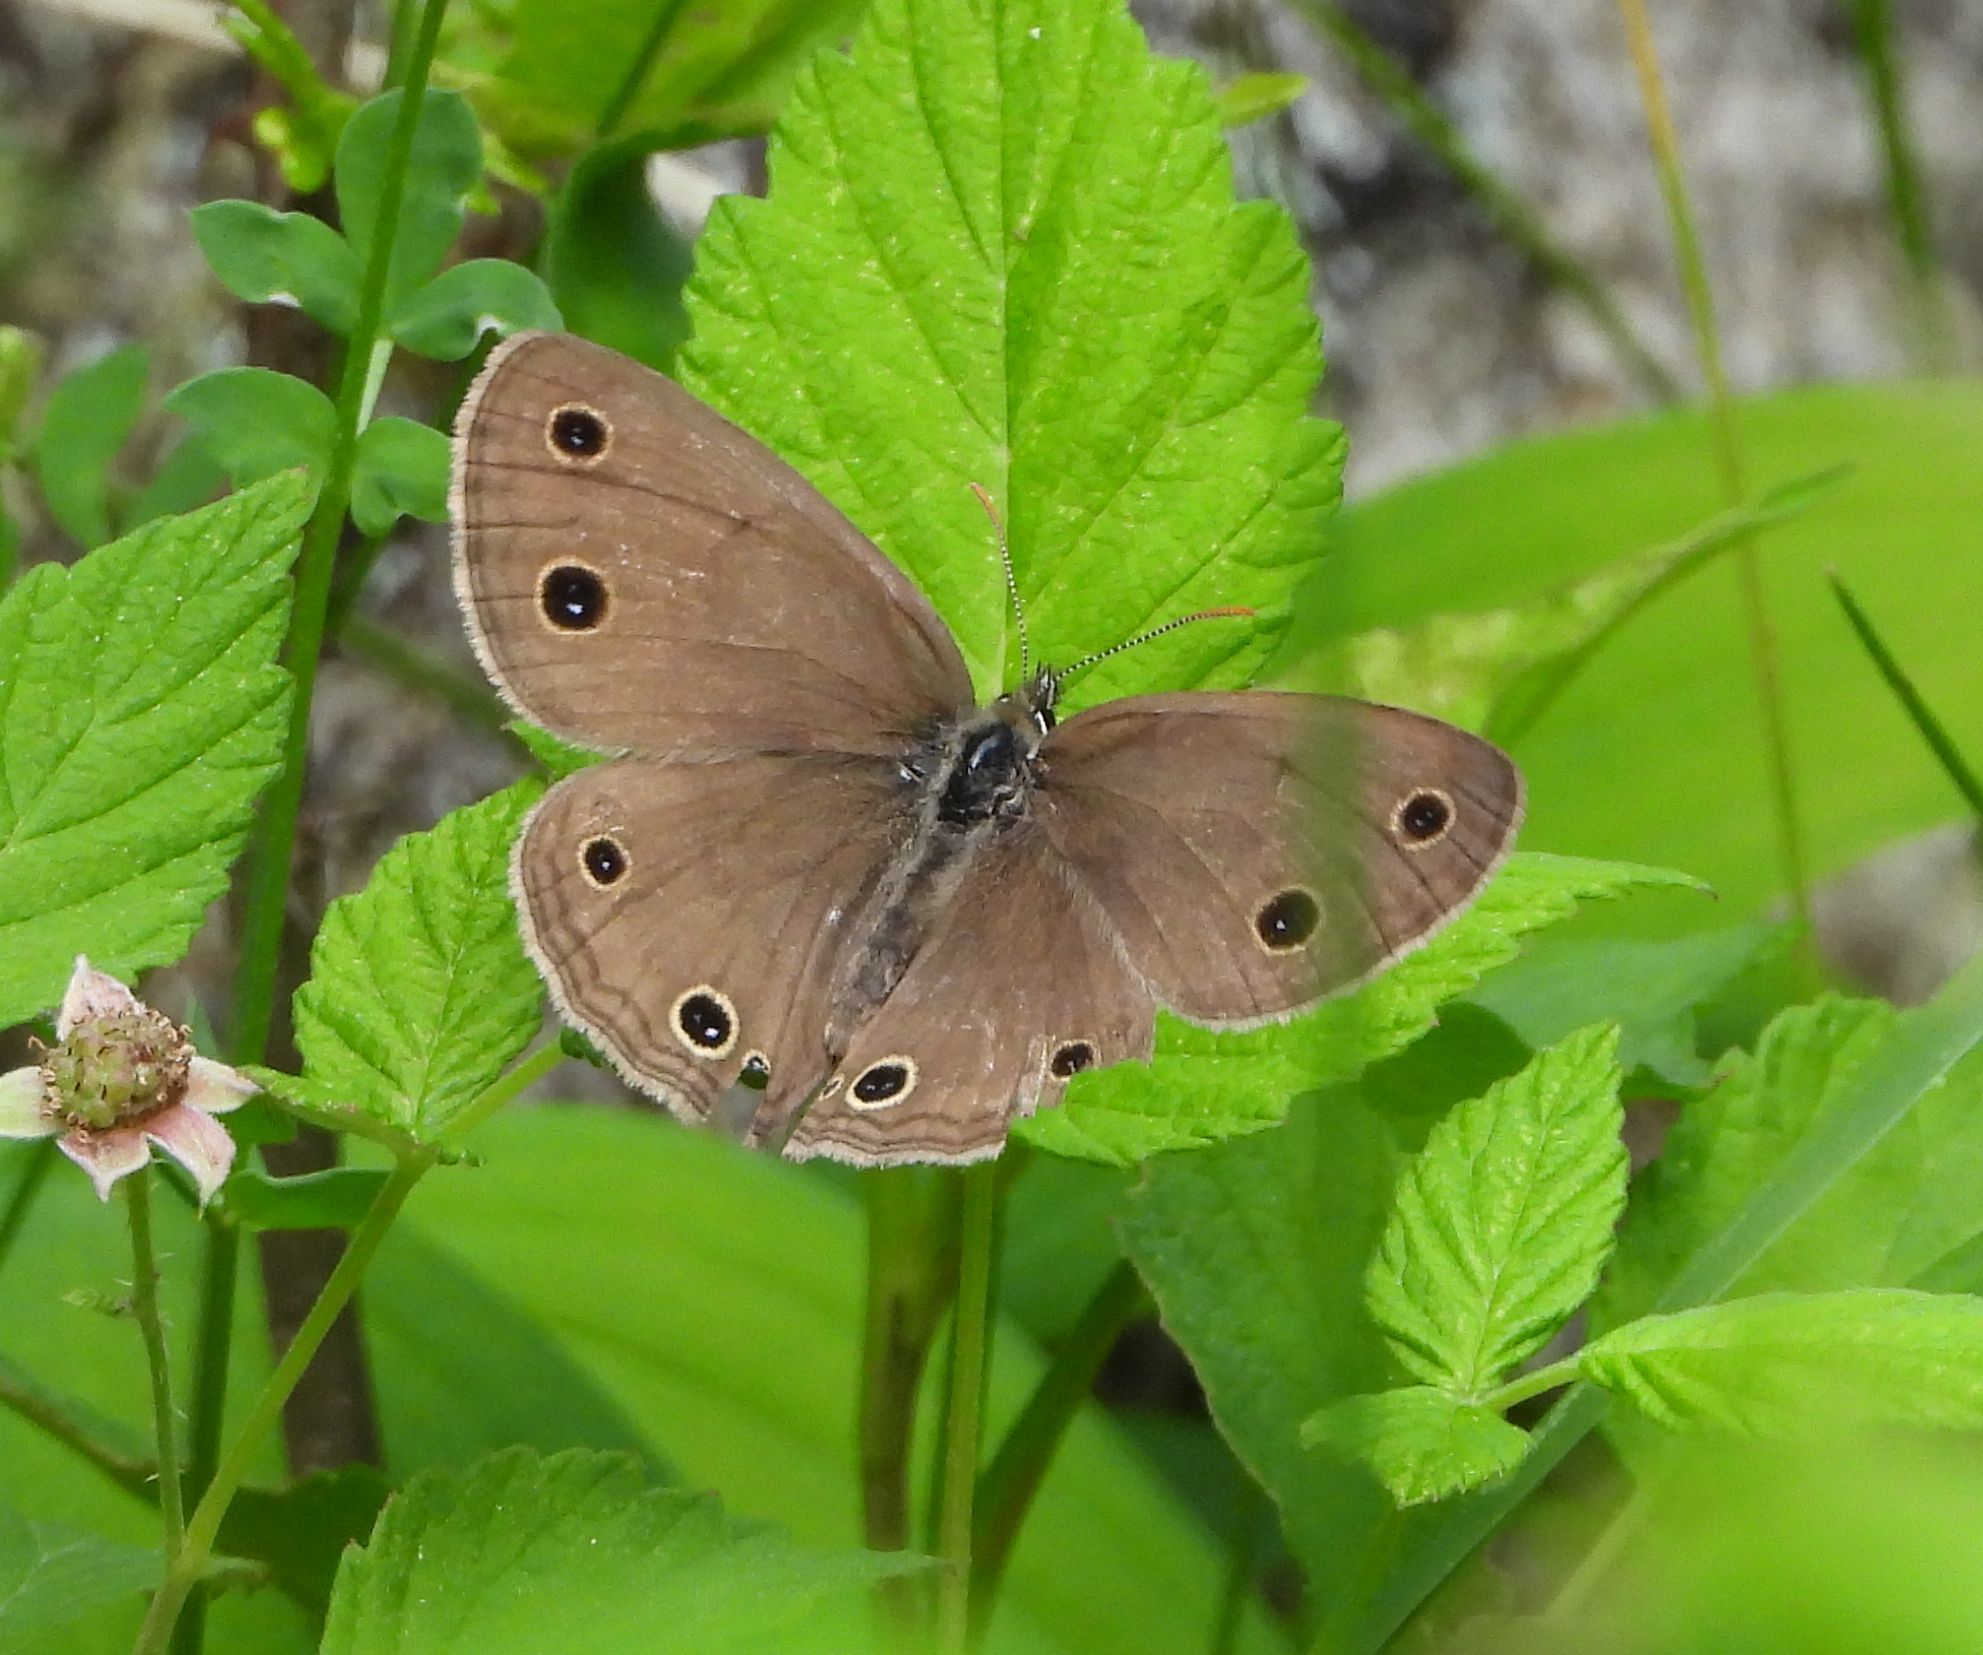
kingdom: Animalia
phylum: Arthropoda
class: Insecta
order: Lepidoptera
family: Nymphalidae
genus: Euptychia
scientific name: Euptychia cymela
